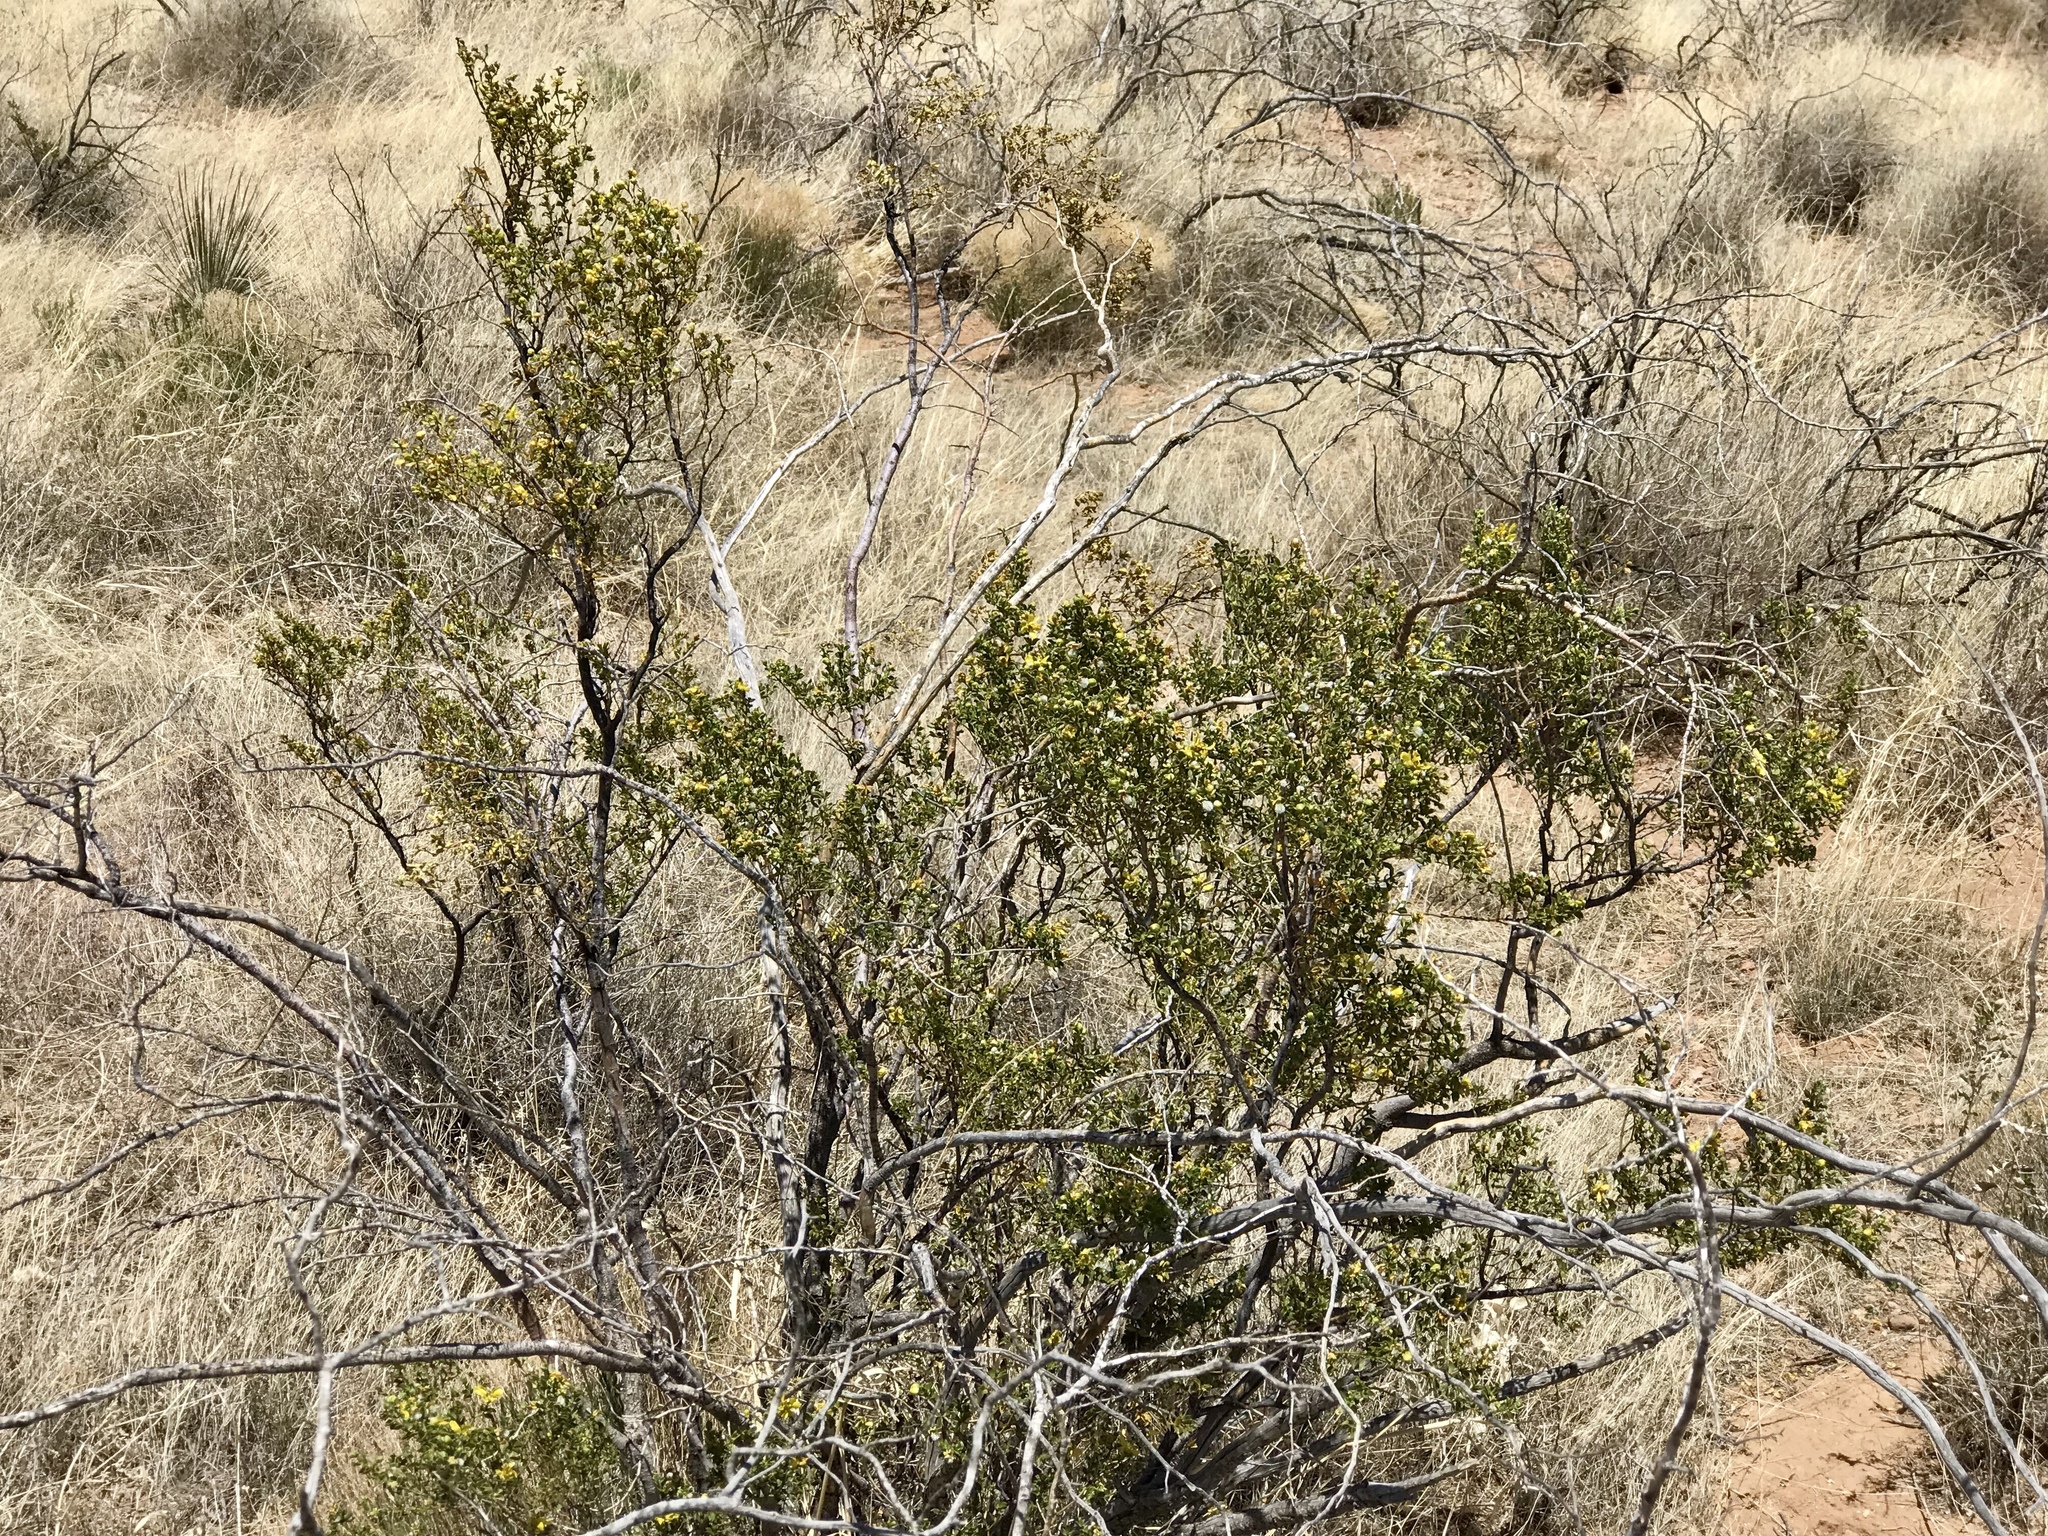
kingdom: Plantae
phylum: Tracheophyta
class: Magnoliopsida
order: Zygophyllales
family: Zygophyllaceae
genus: Larrea
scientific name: Larrea tridentata
